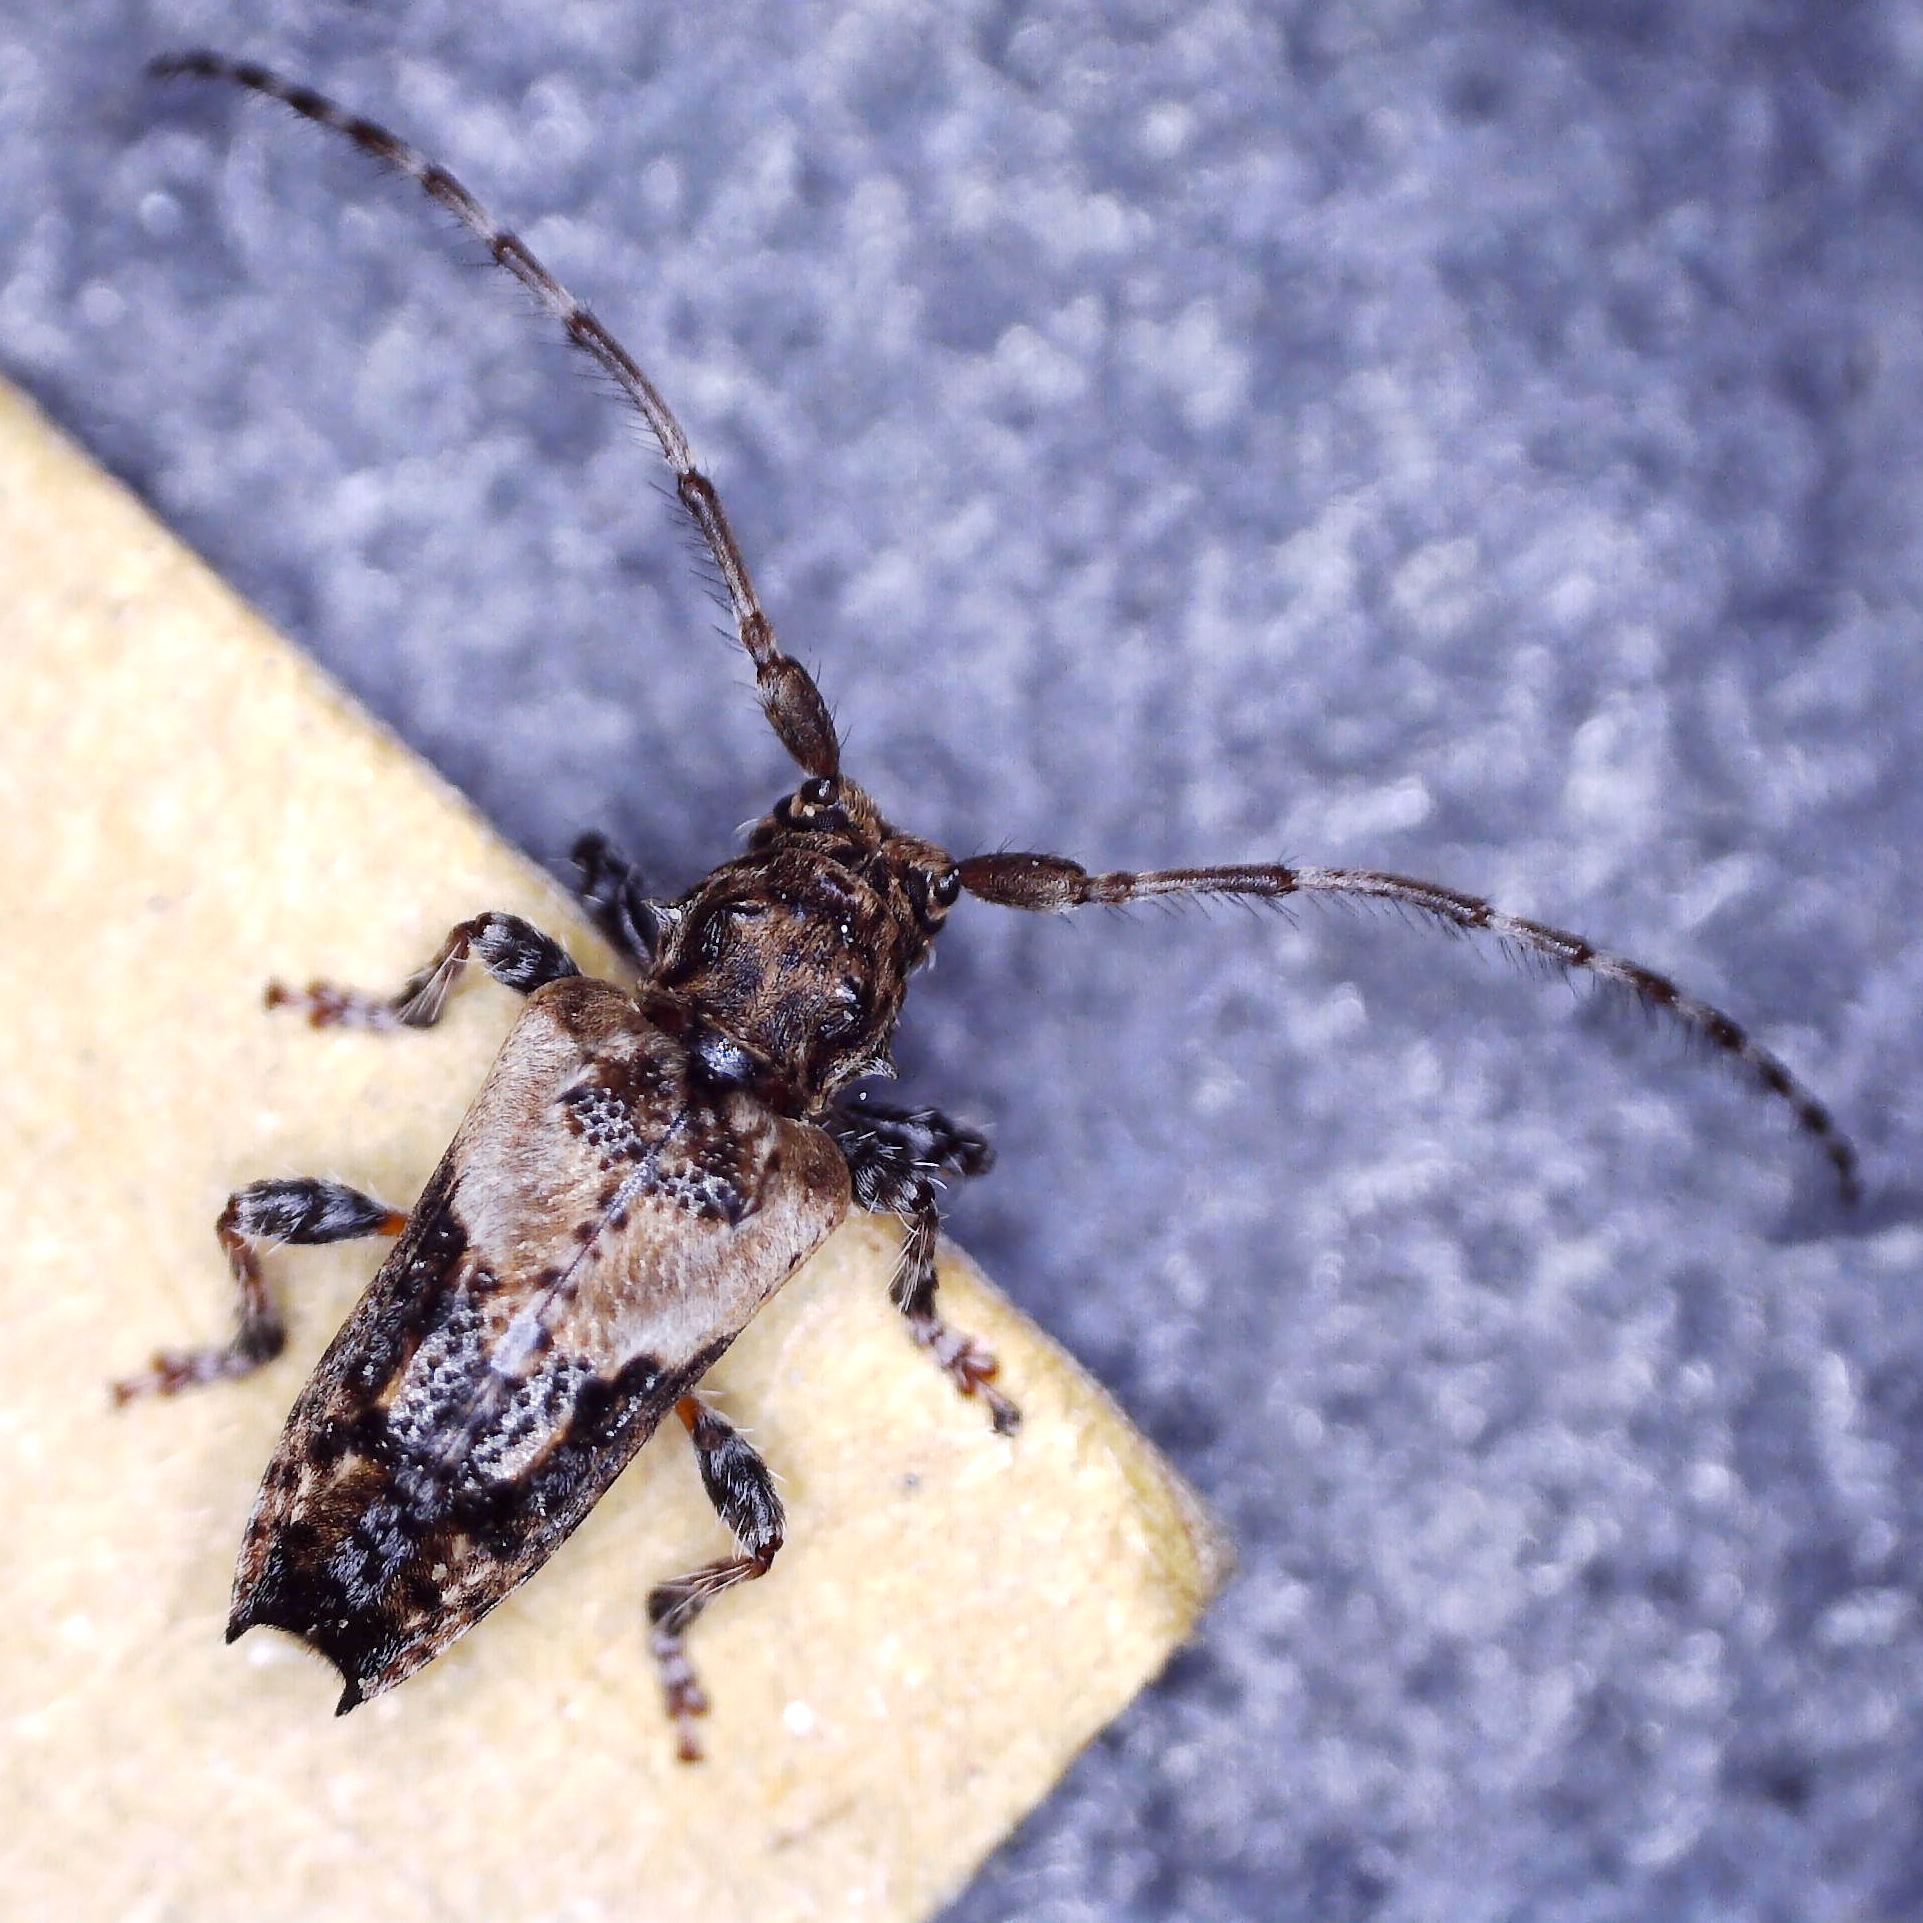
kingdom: Animalia
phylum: Arthropoda
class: Insecta
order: Coleoptera
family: Cerambycidae
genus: Pogonocherus
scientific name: Pogonocherus hispidus
